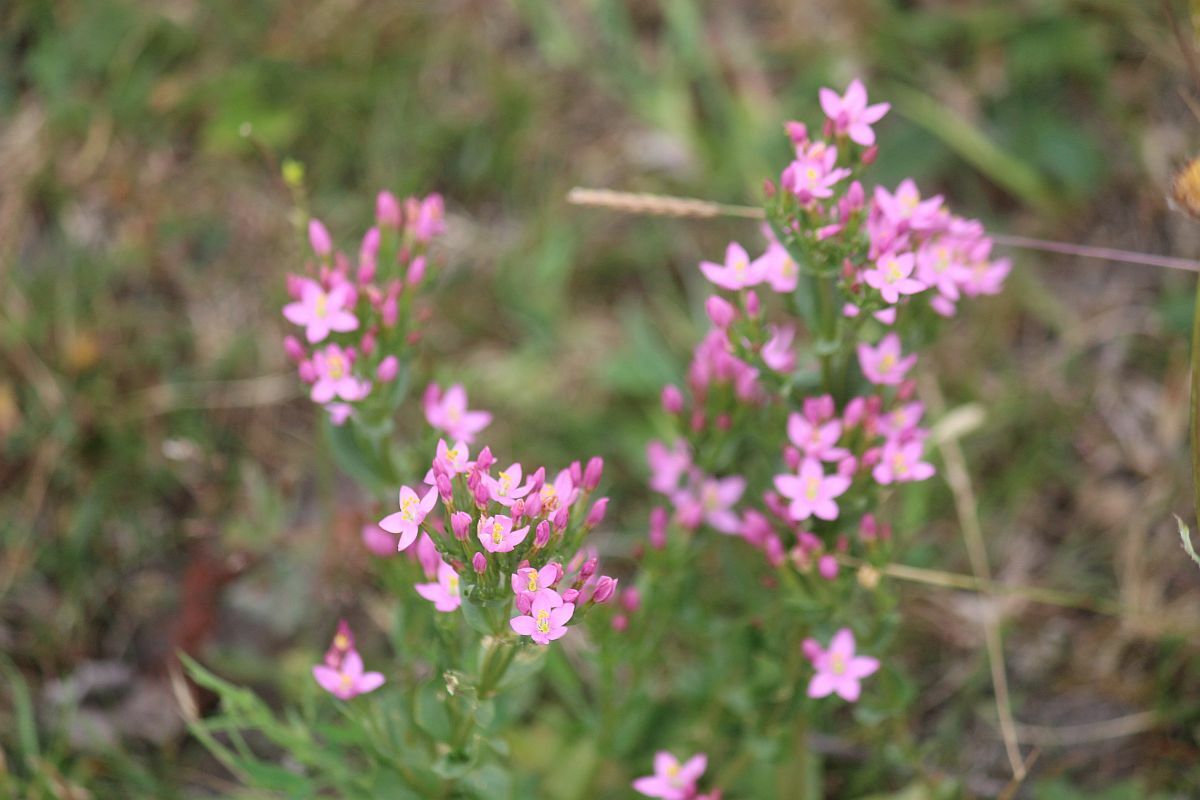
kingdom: Plantae
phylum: Tracheophyta
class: Magnoliopsida
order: Gentianales
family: Gentianaceae
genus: Centaurium
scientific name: Centaurium erythraea
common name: Common centaury
